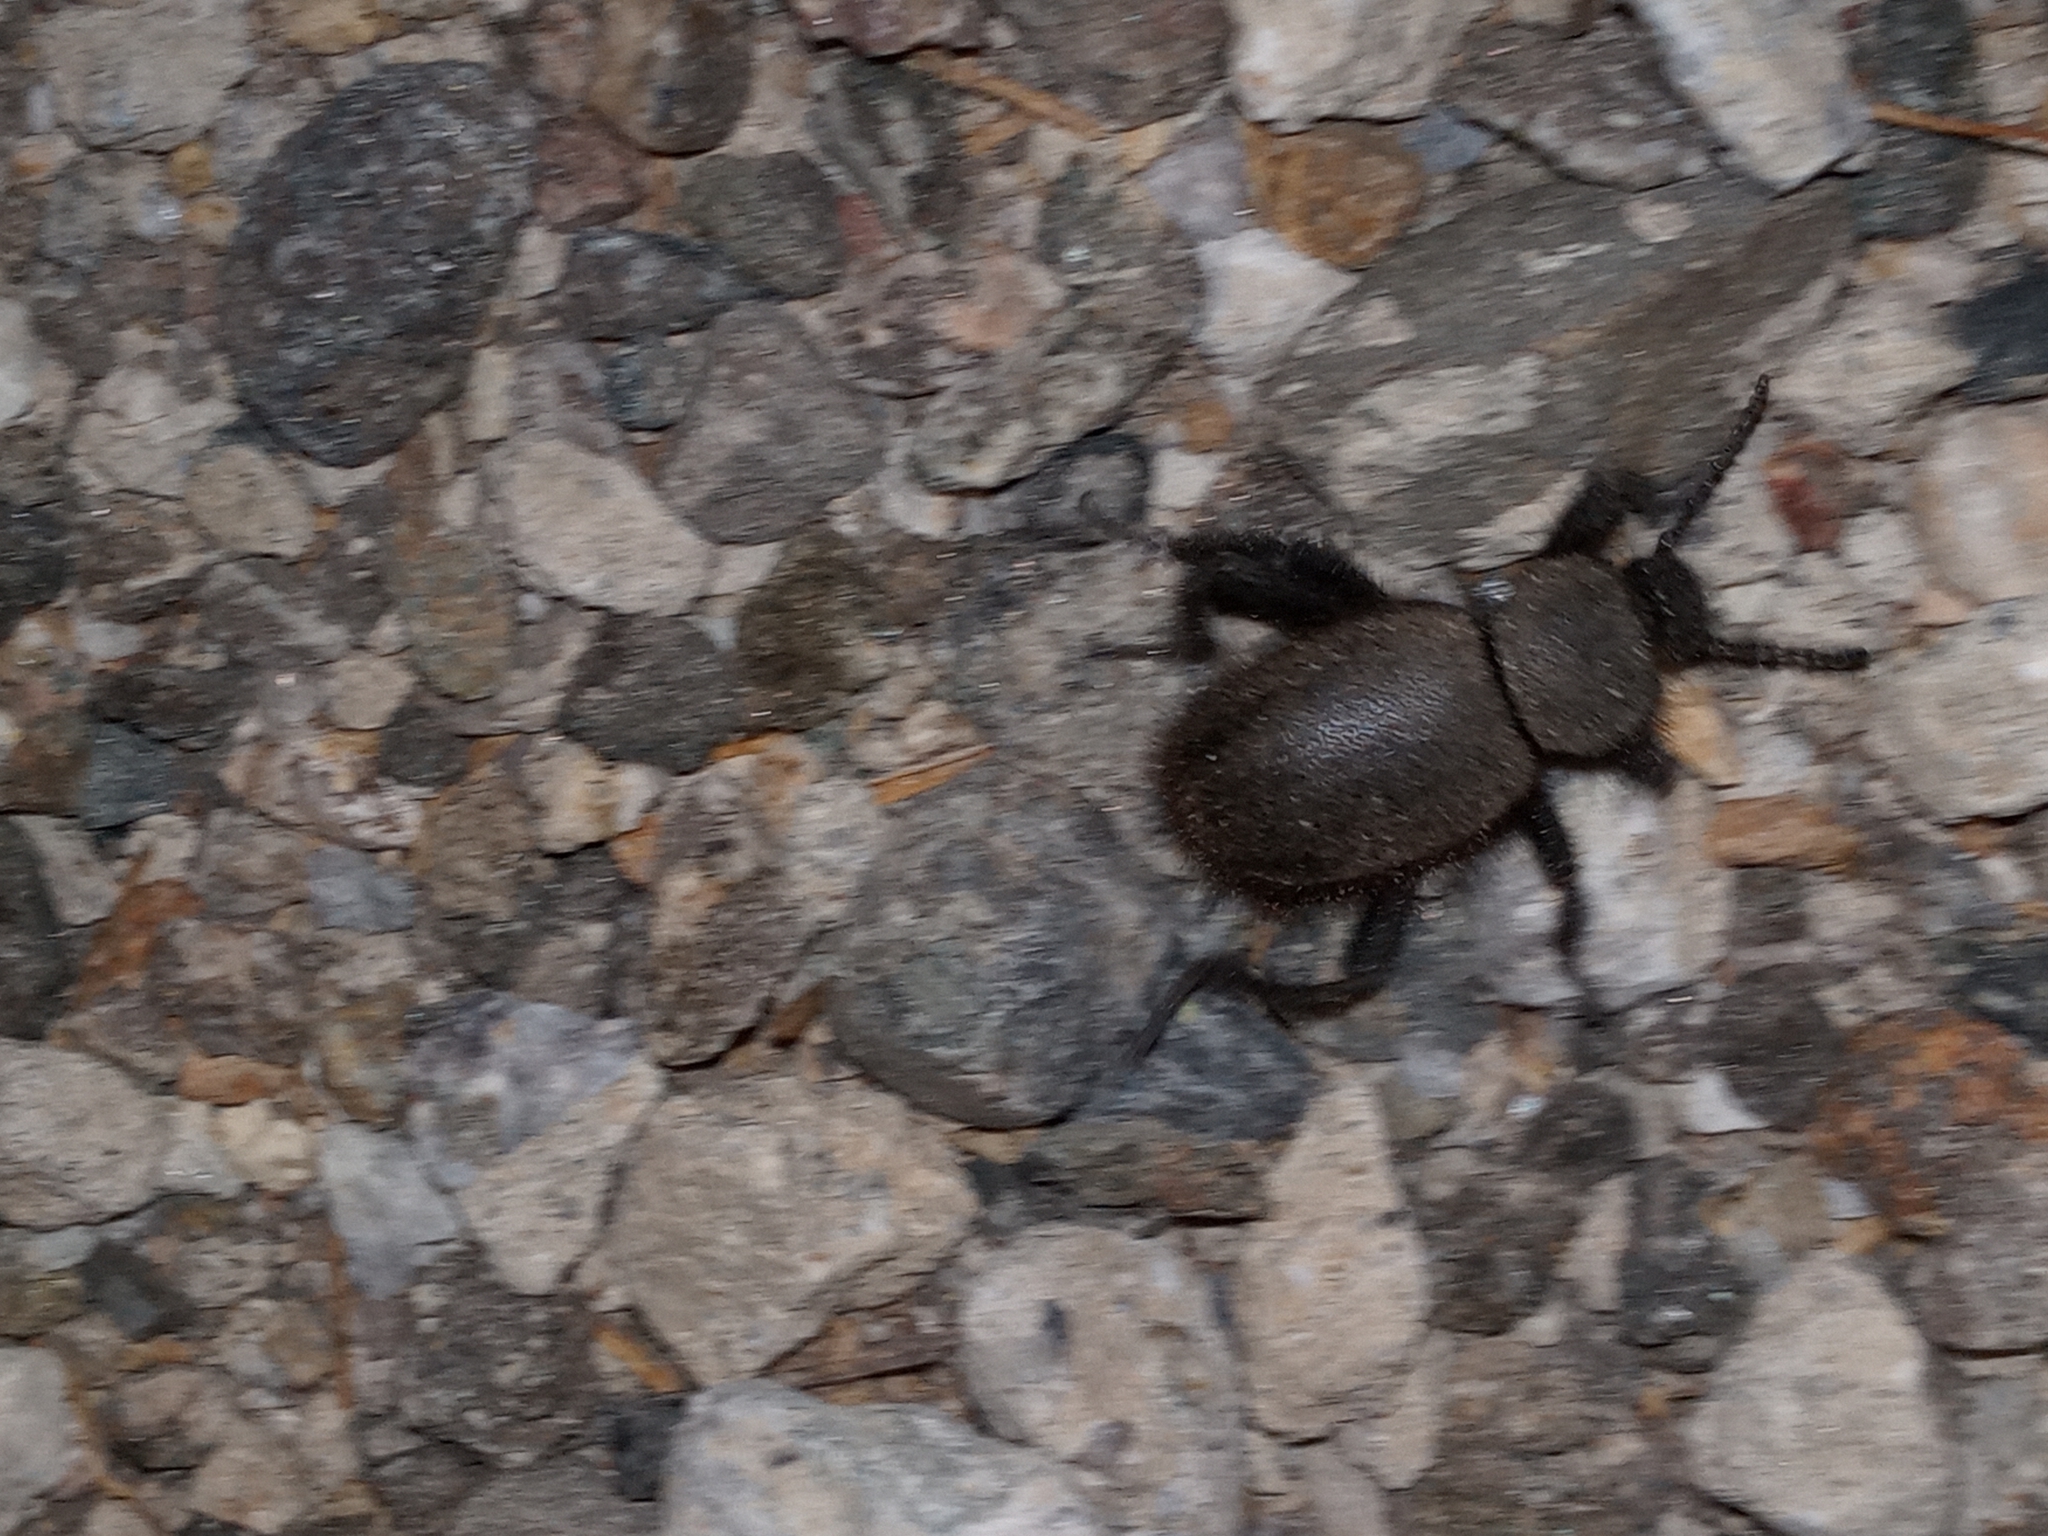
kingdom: Animalia
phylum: Arthropoda
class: Insecta
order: Coleoptera
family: Tenebrionidae
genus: Eleodes
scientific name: Eleodes osculans
